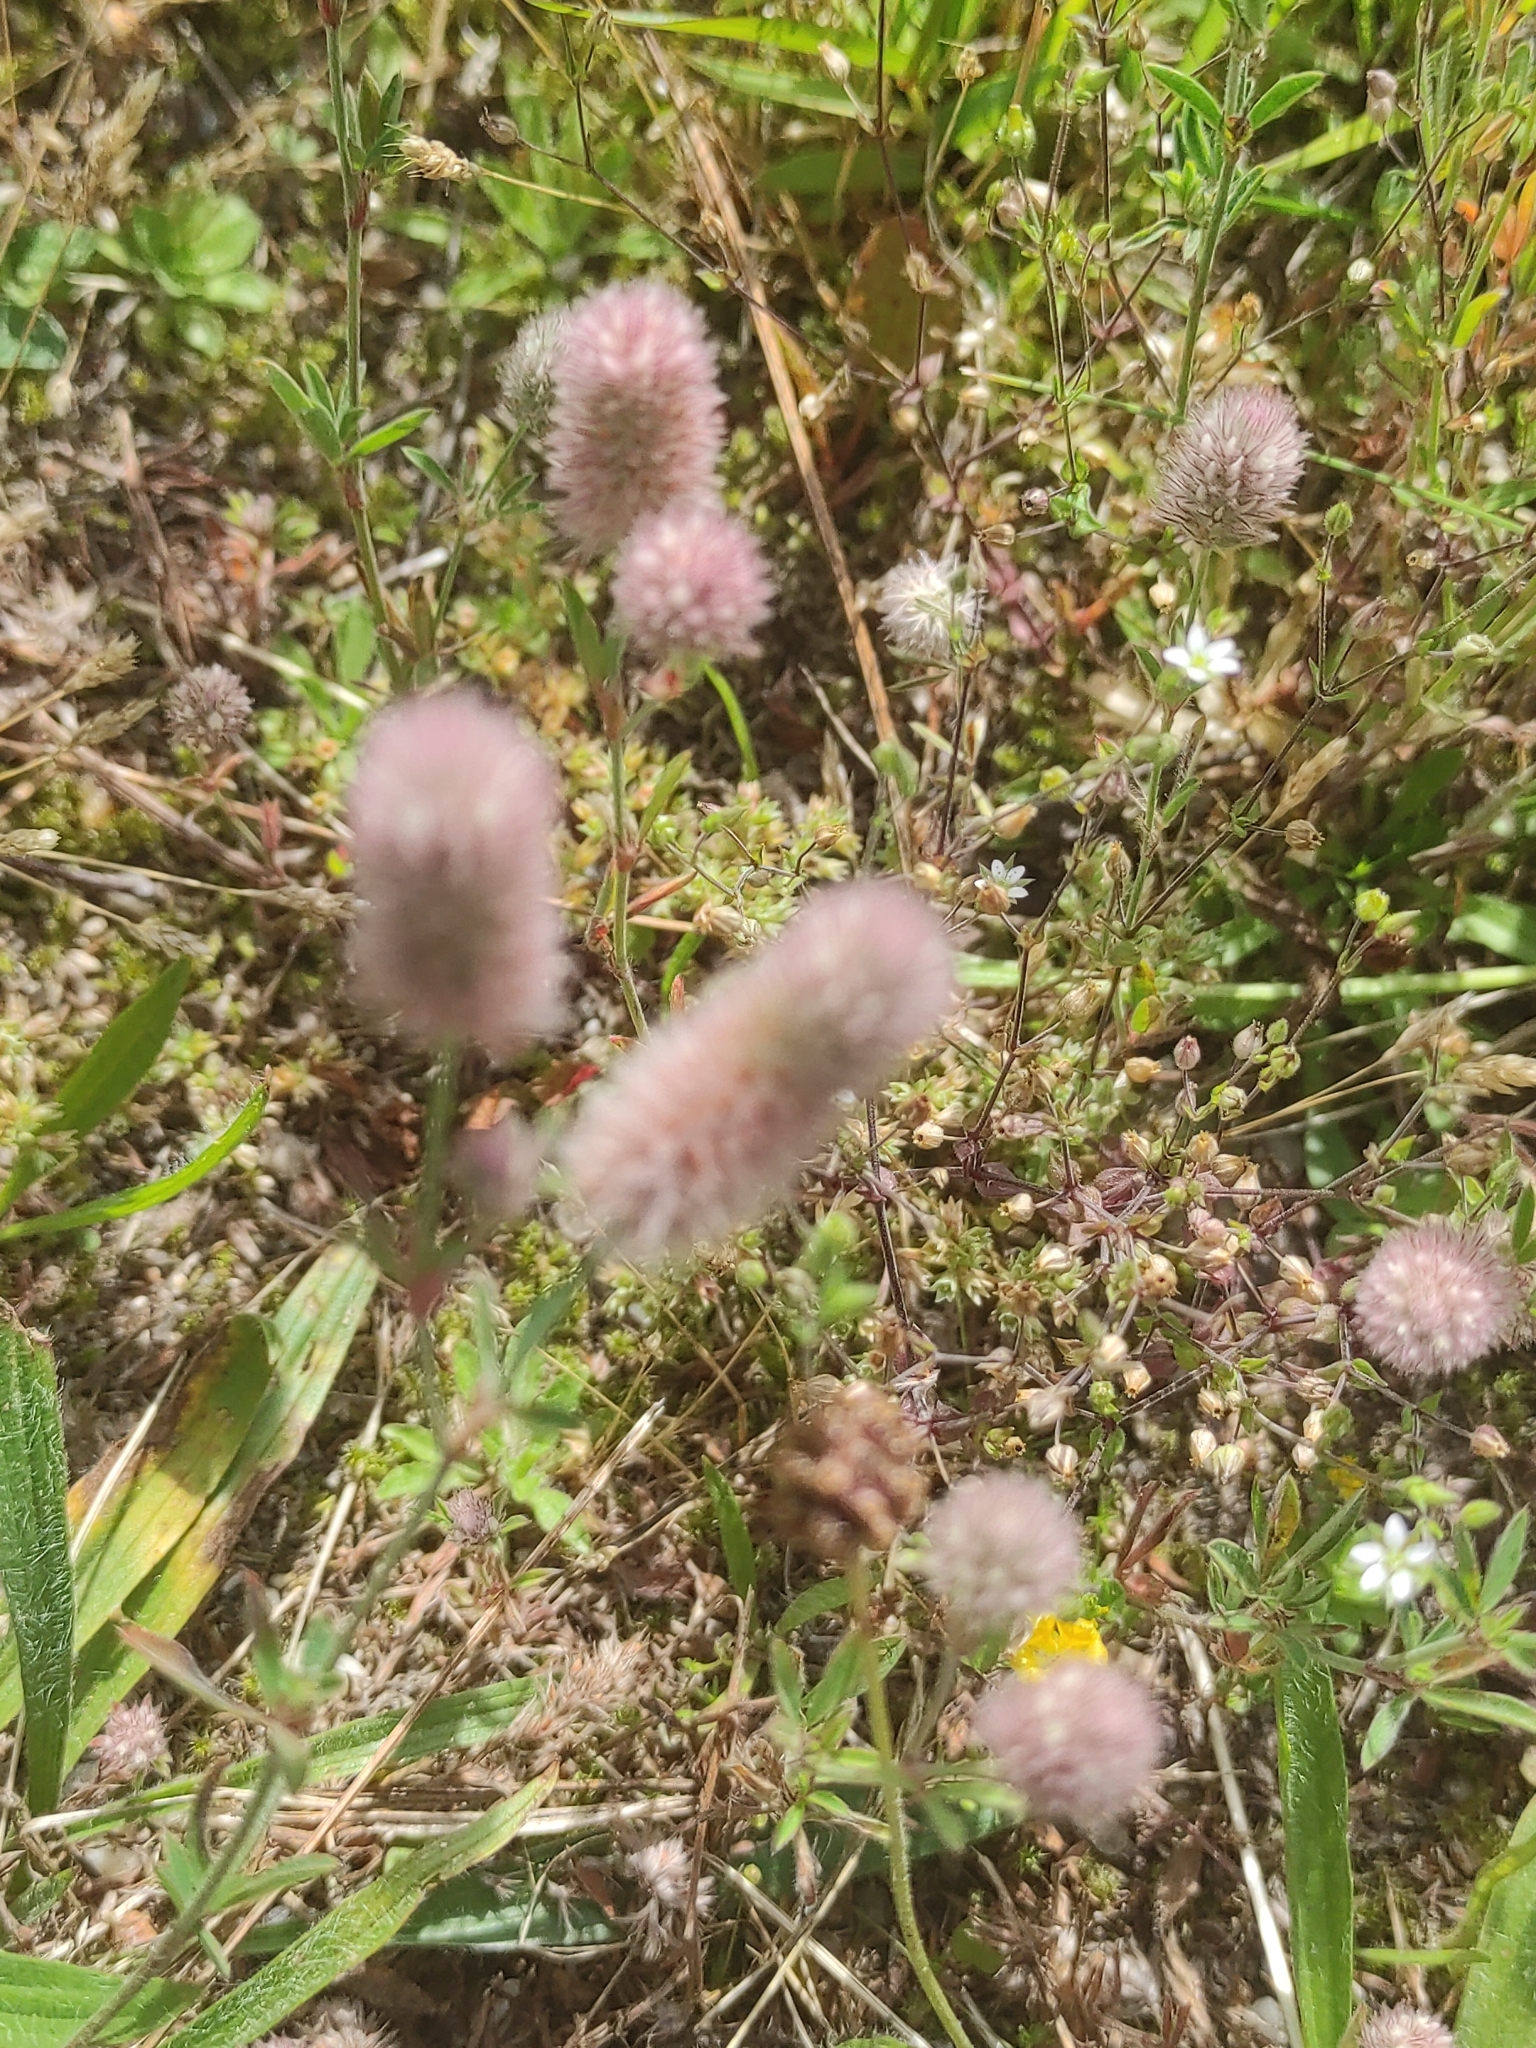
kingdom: Plantae
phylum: Tracheophyta
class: Magnoliopsida
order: Fabales
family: Fabaceae
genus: Trifolium
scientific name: Trifolium arvense
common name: Hare's-foot clover
